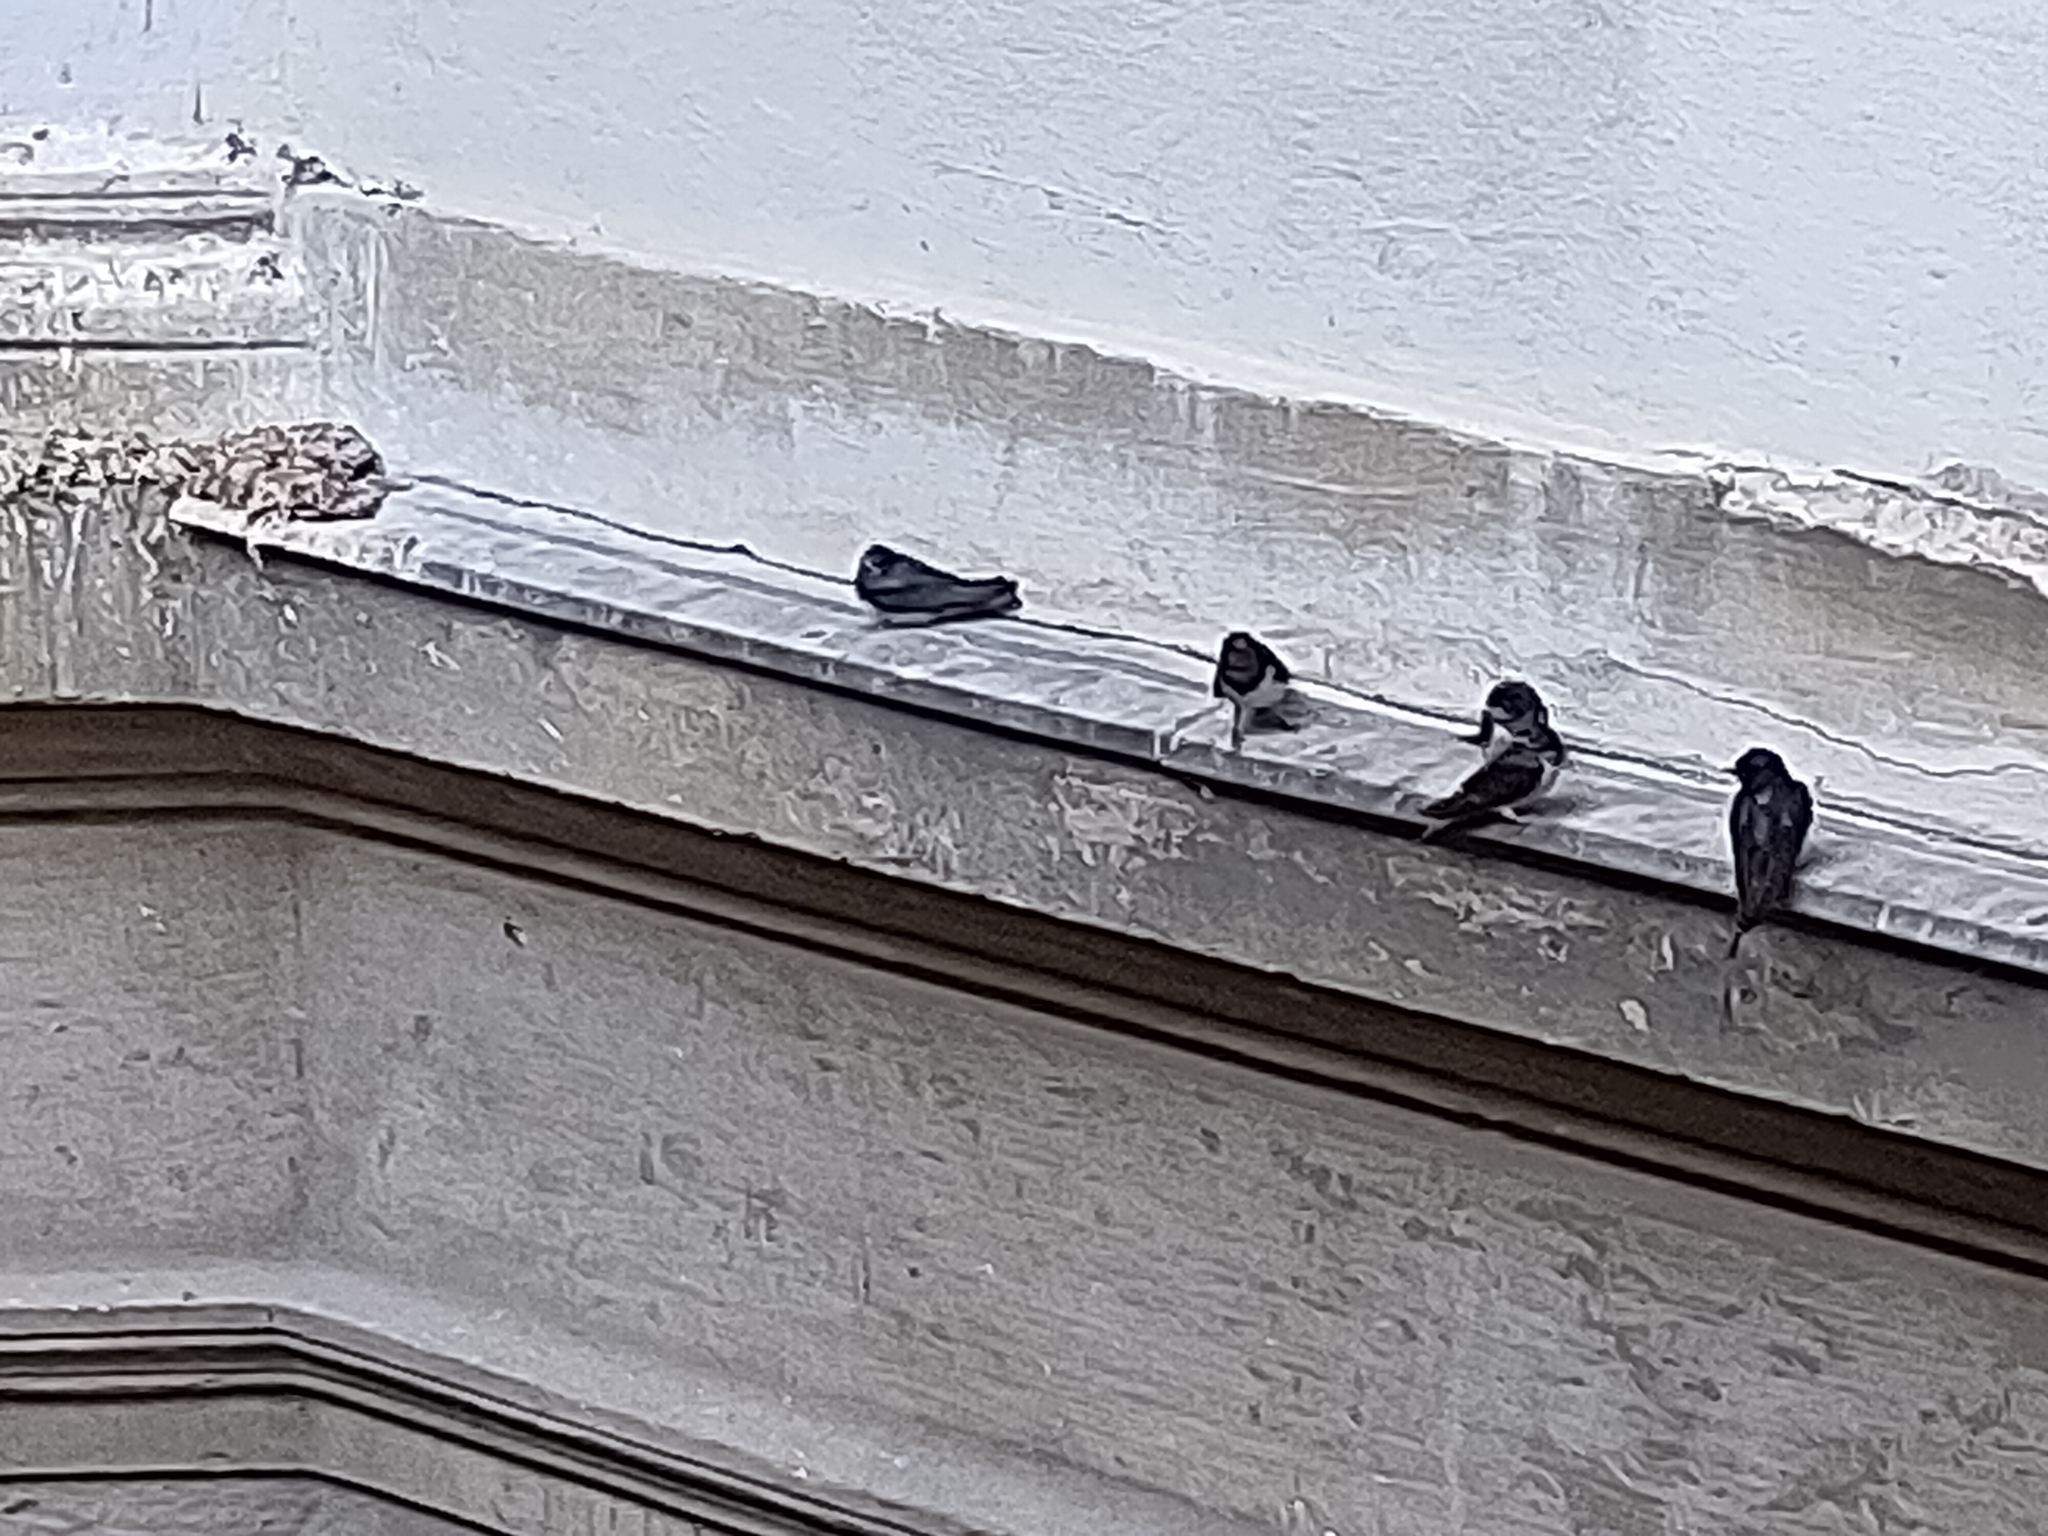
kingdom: Animalia
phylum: Chordata
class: Aves
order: Passeriformes
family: Hirundinidae
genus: Delichon
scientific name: Delichon urbicum
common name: Common house martin
